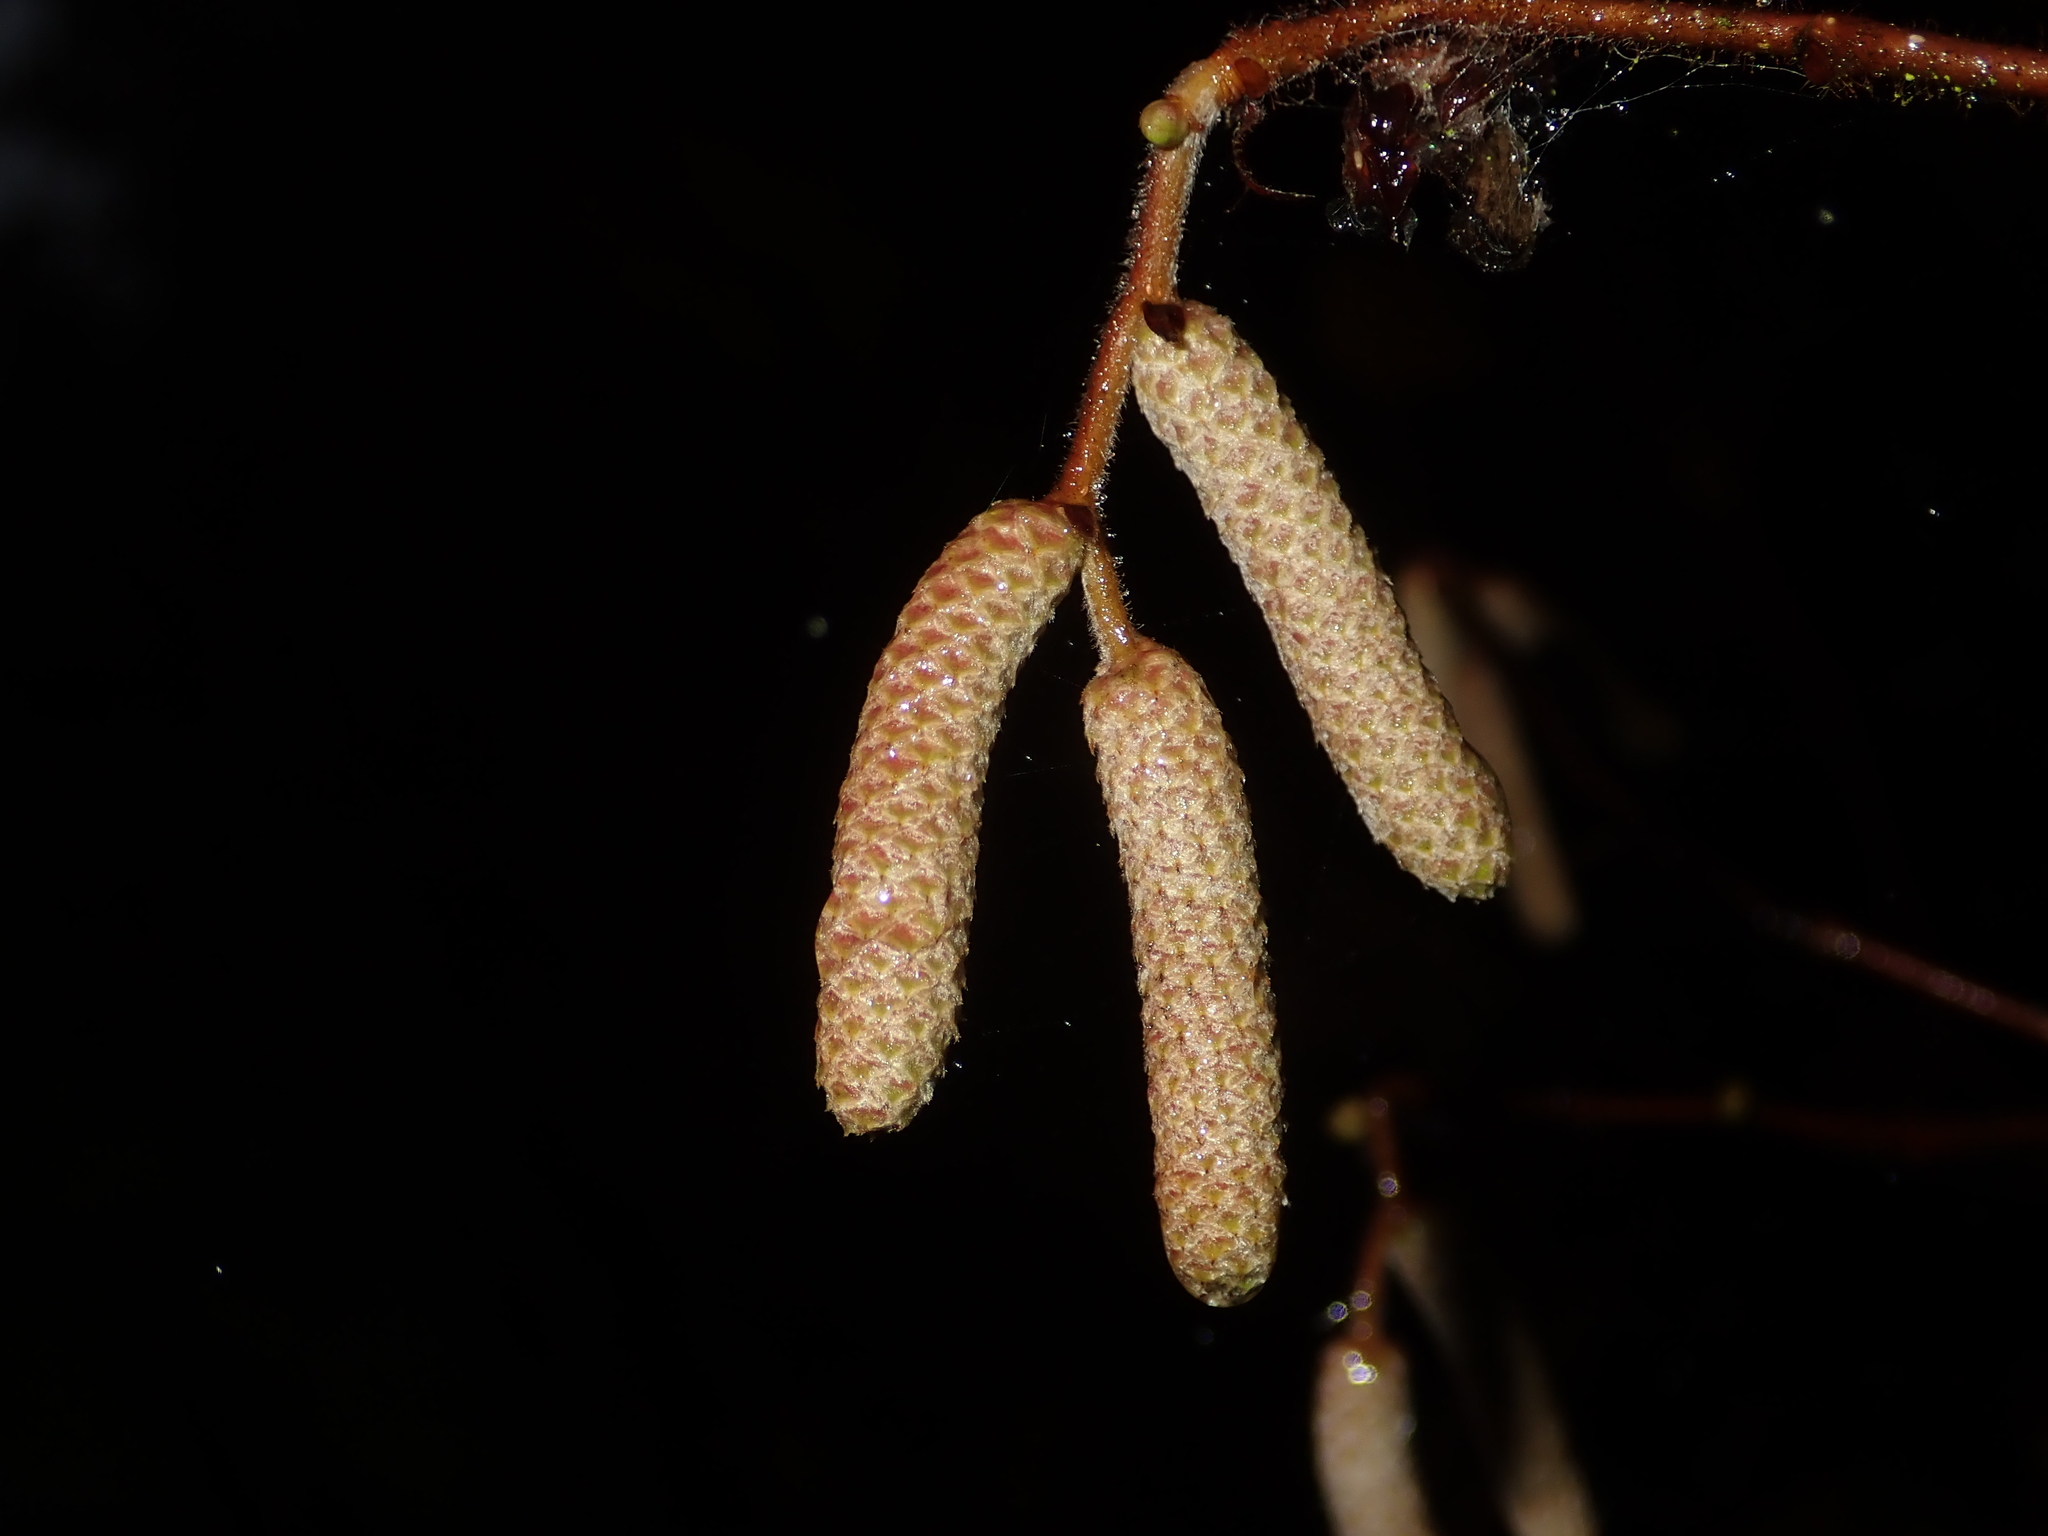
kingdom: Plantae
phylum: Tracheophyta
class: Magnoliopsida
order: Fagales
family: Betulaceae
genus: Corylus
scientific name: Corylus avellana
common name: European hazel
